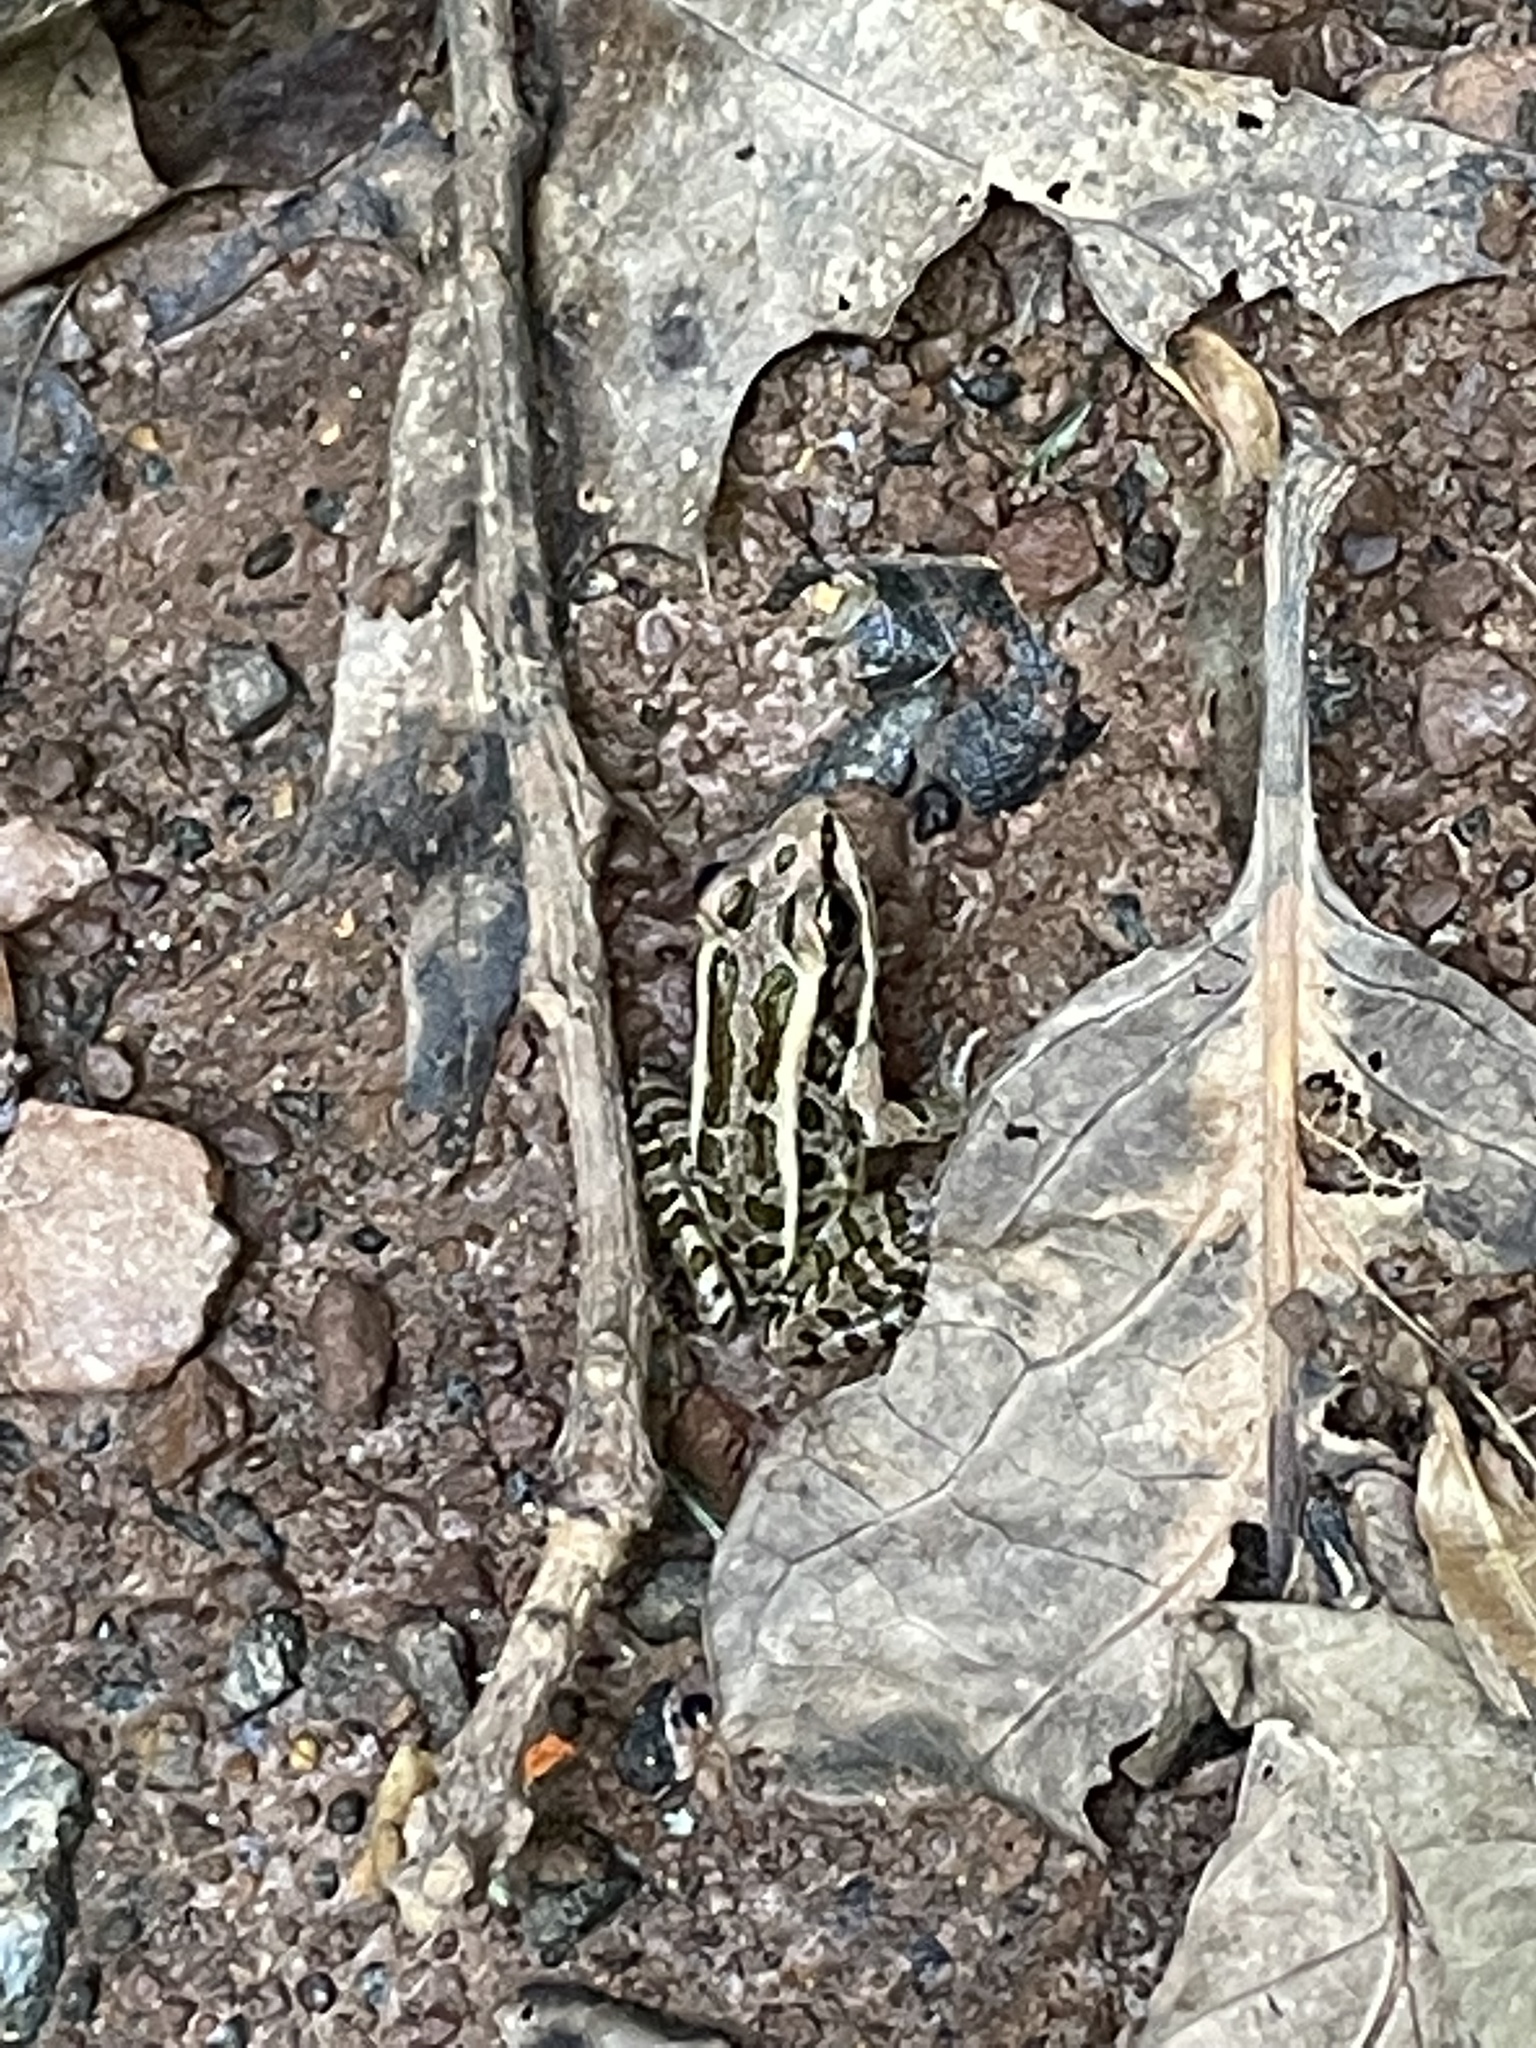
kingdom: Animalia
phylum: Chordata
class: Amphibia
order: Anura
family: Ranidae
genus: Lithobates
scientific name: Lithobates palustris
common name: Pickerel frog
